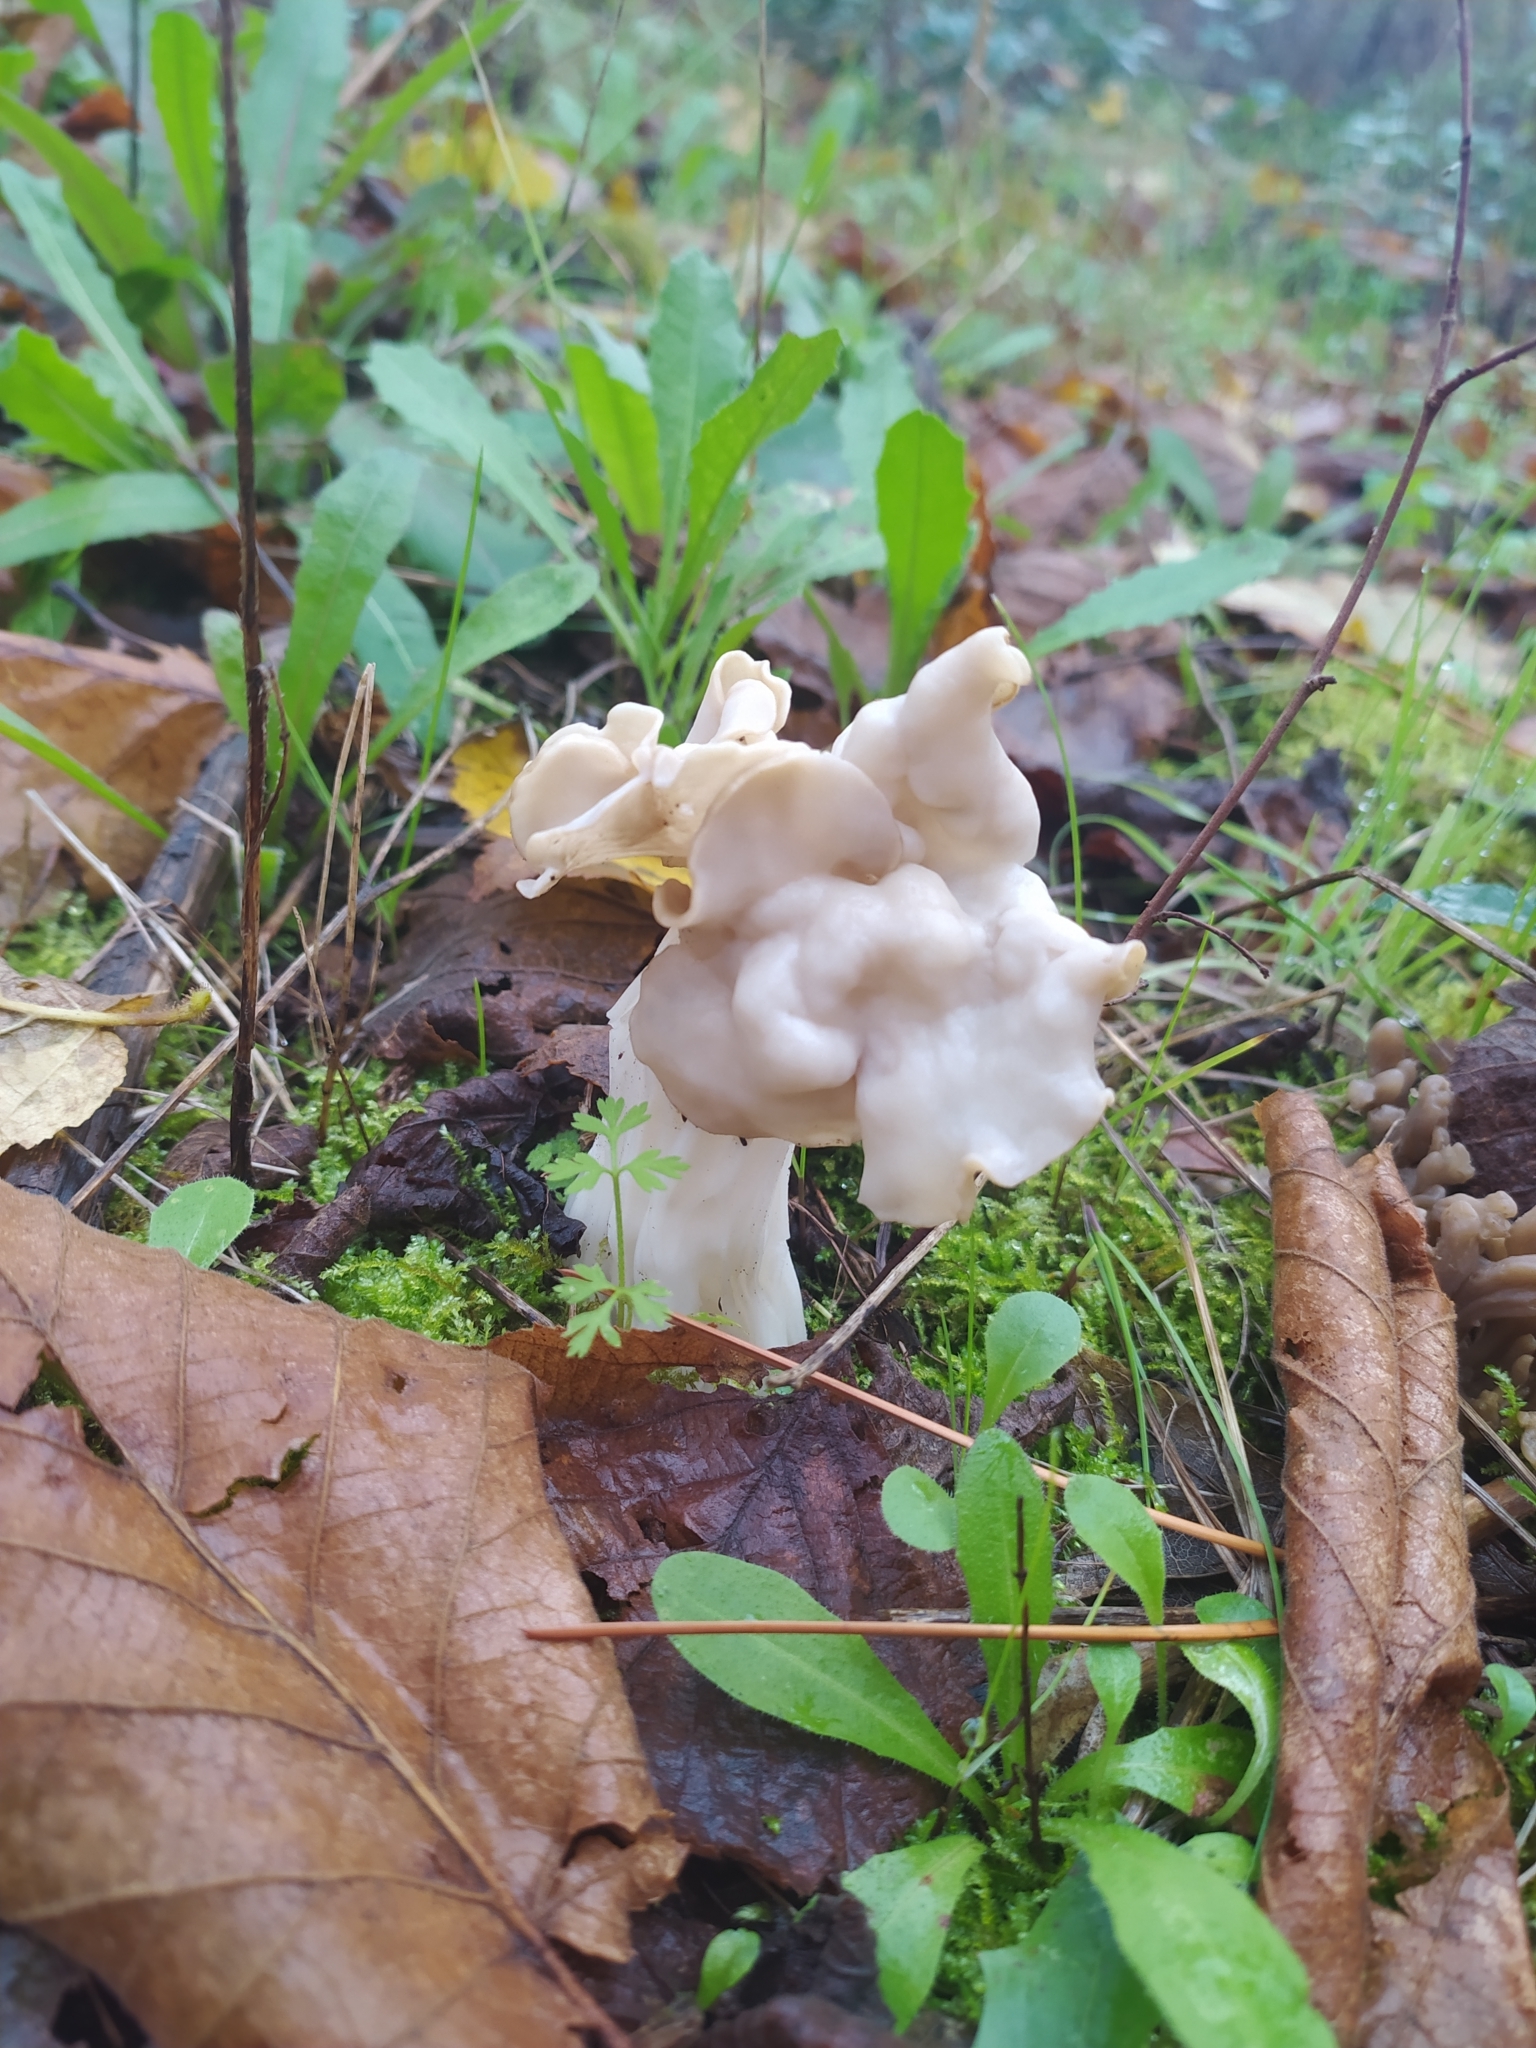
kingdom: Fungi
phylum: Ascomycota
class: Pezizomycetes
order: Pezizales
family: Helvellaceae
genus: Helvella
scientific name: Helvella crispa
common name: White saddle
